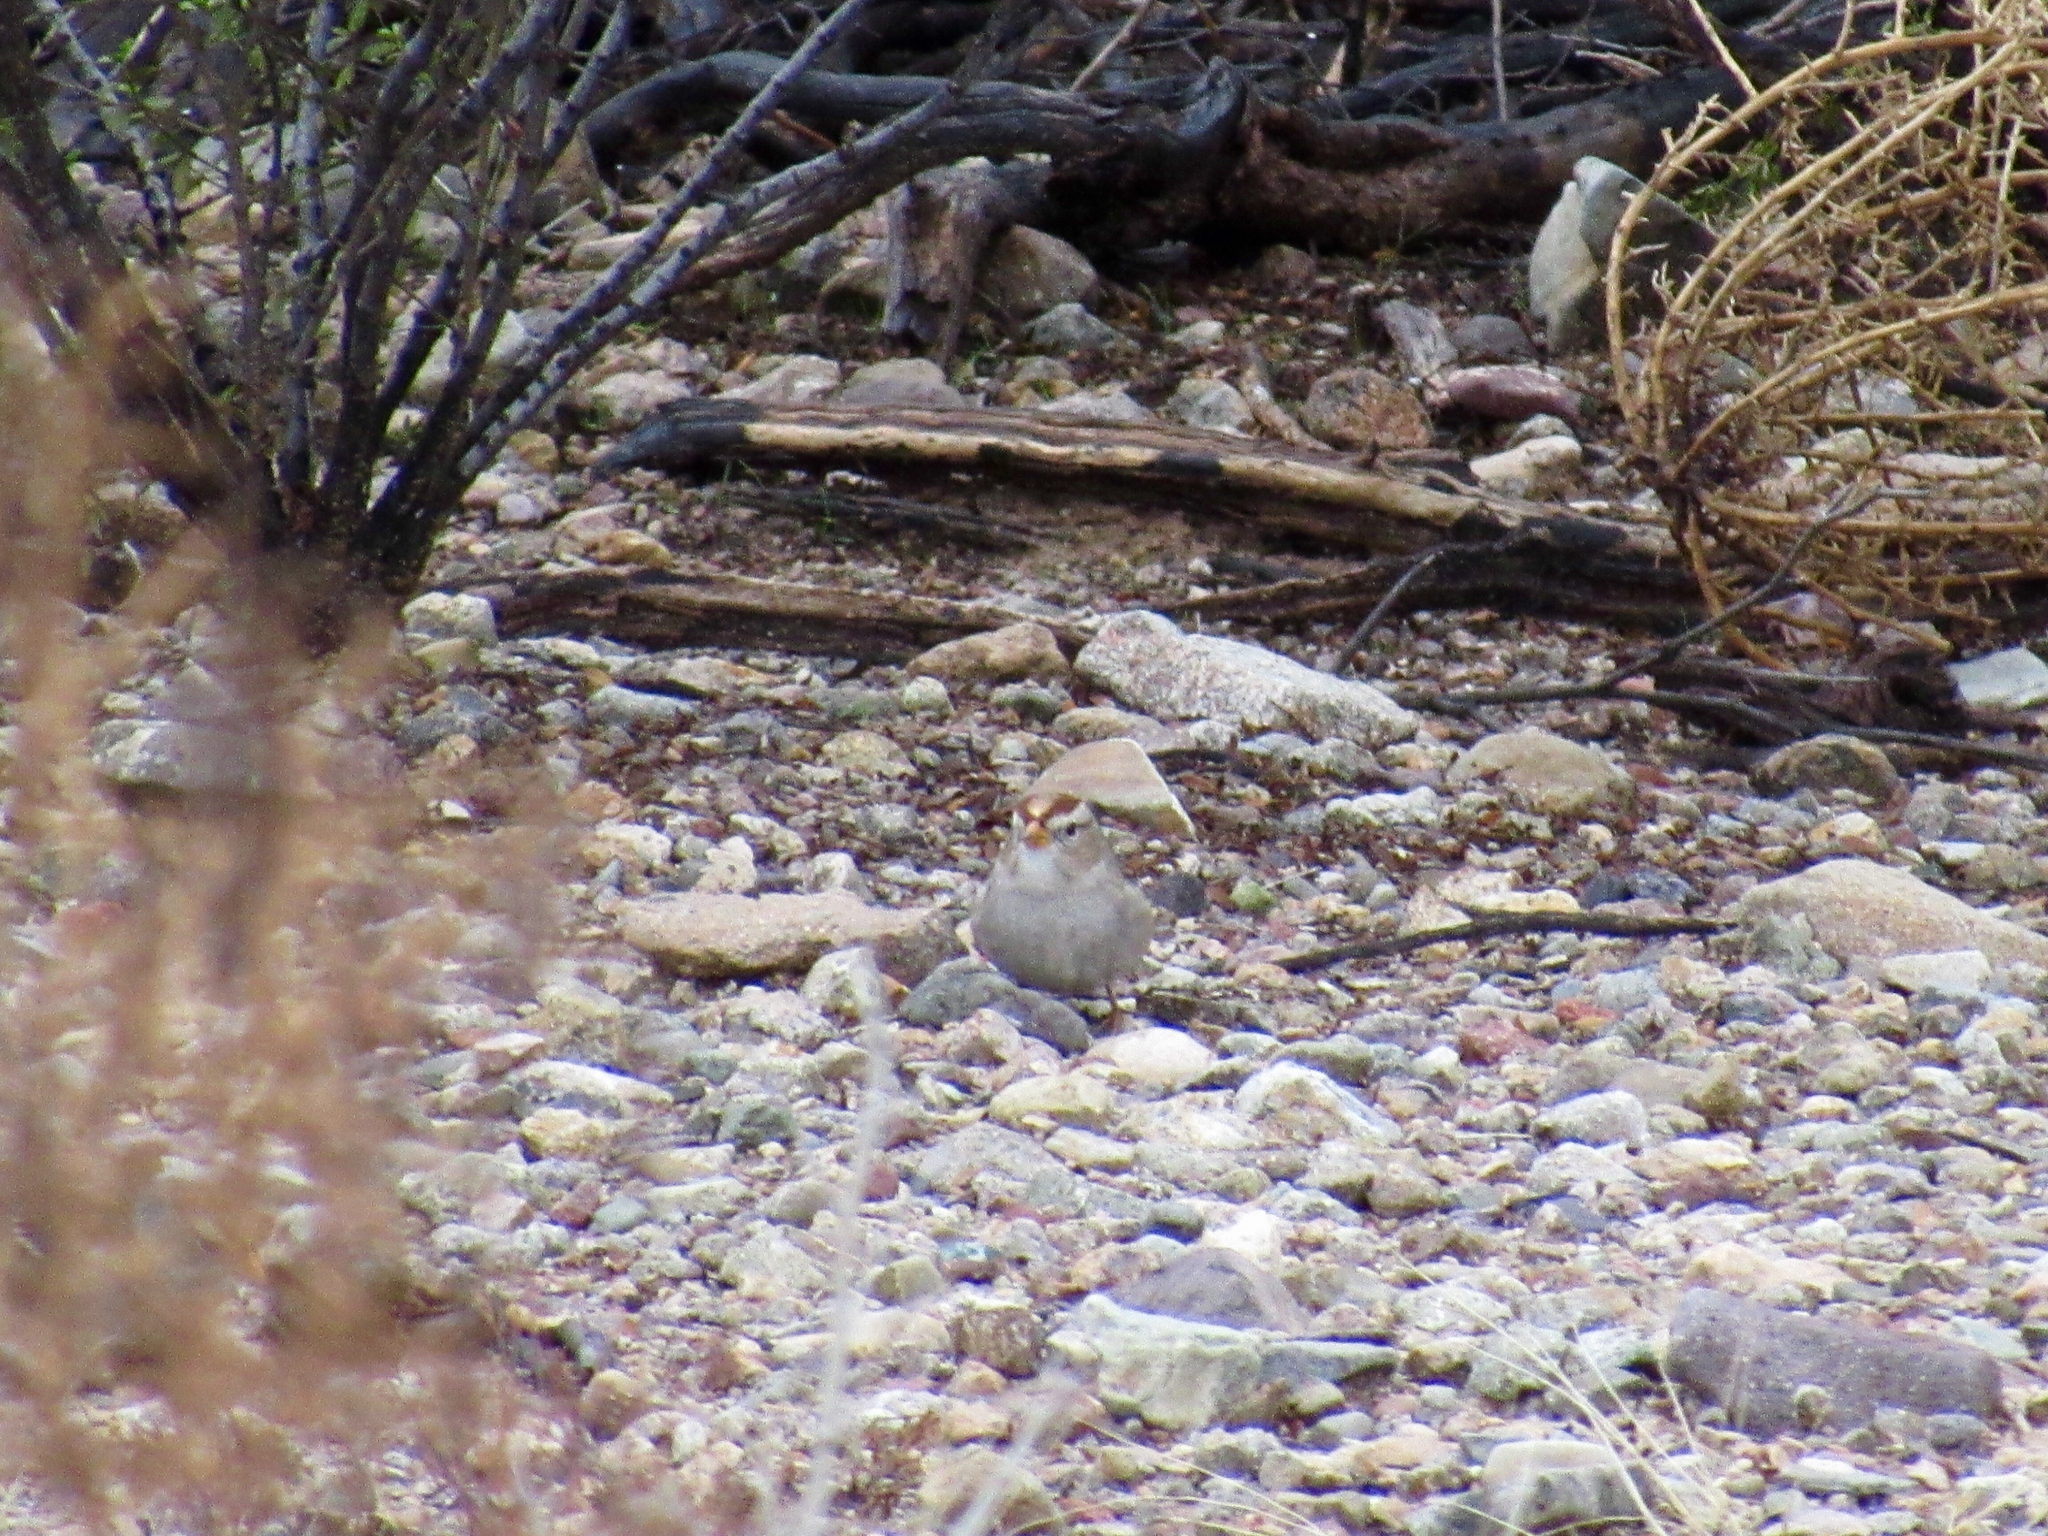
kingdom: Animalia
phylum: Chordata
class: Aves
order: Passeriformes
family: Passerellidae
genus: Zonotrichia
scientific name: Zonotrichia leucophrys
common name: White-crowned sparrow
